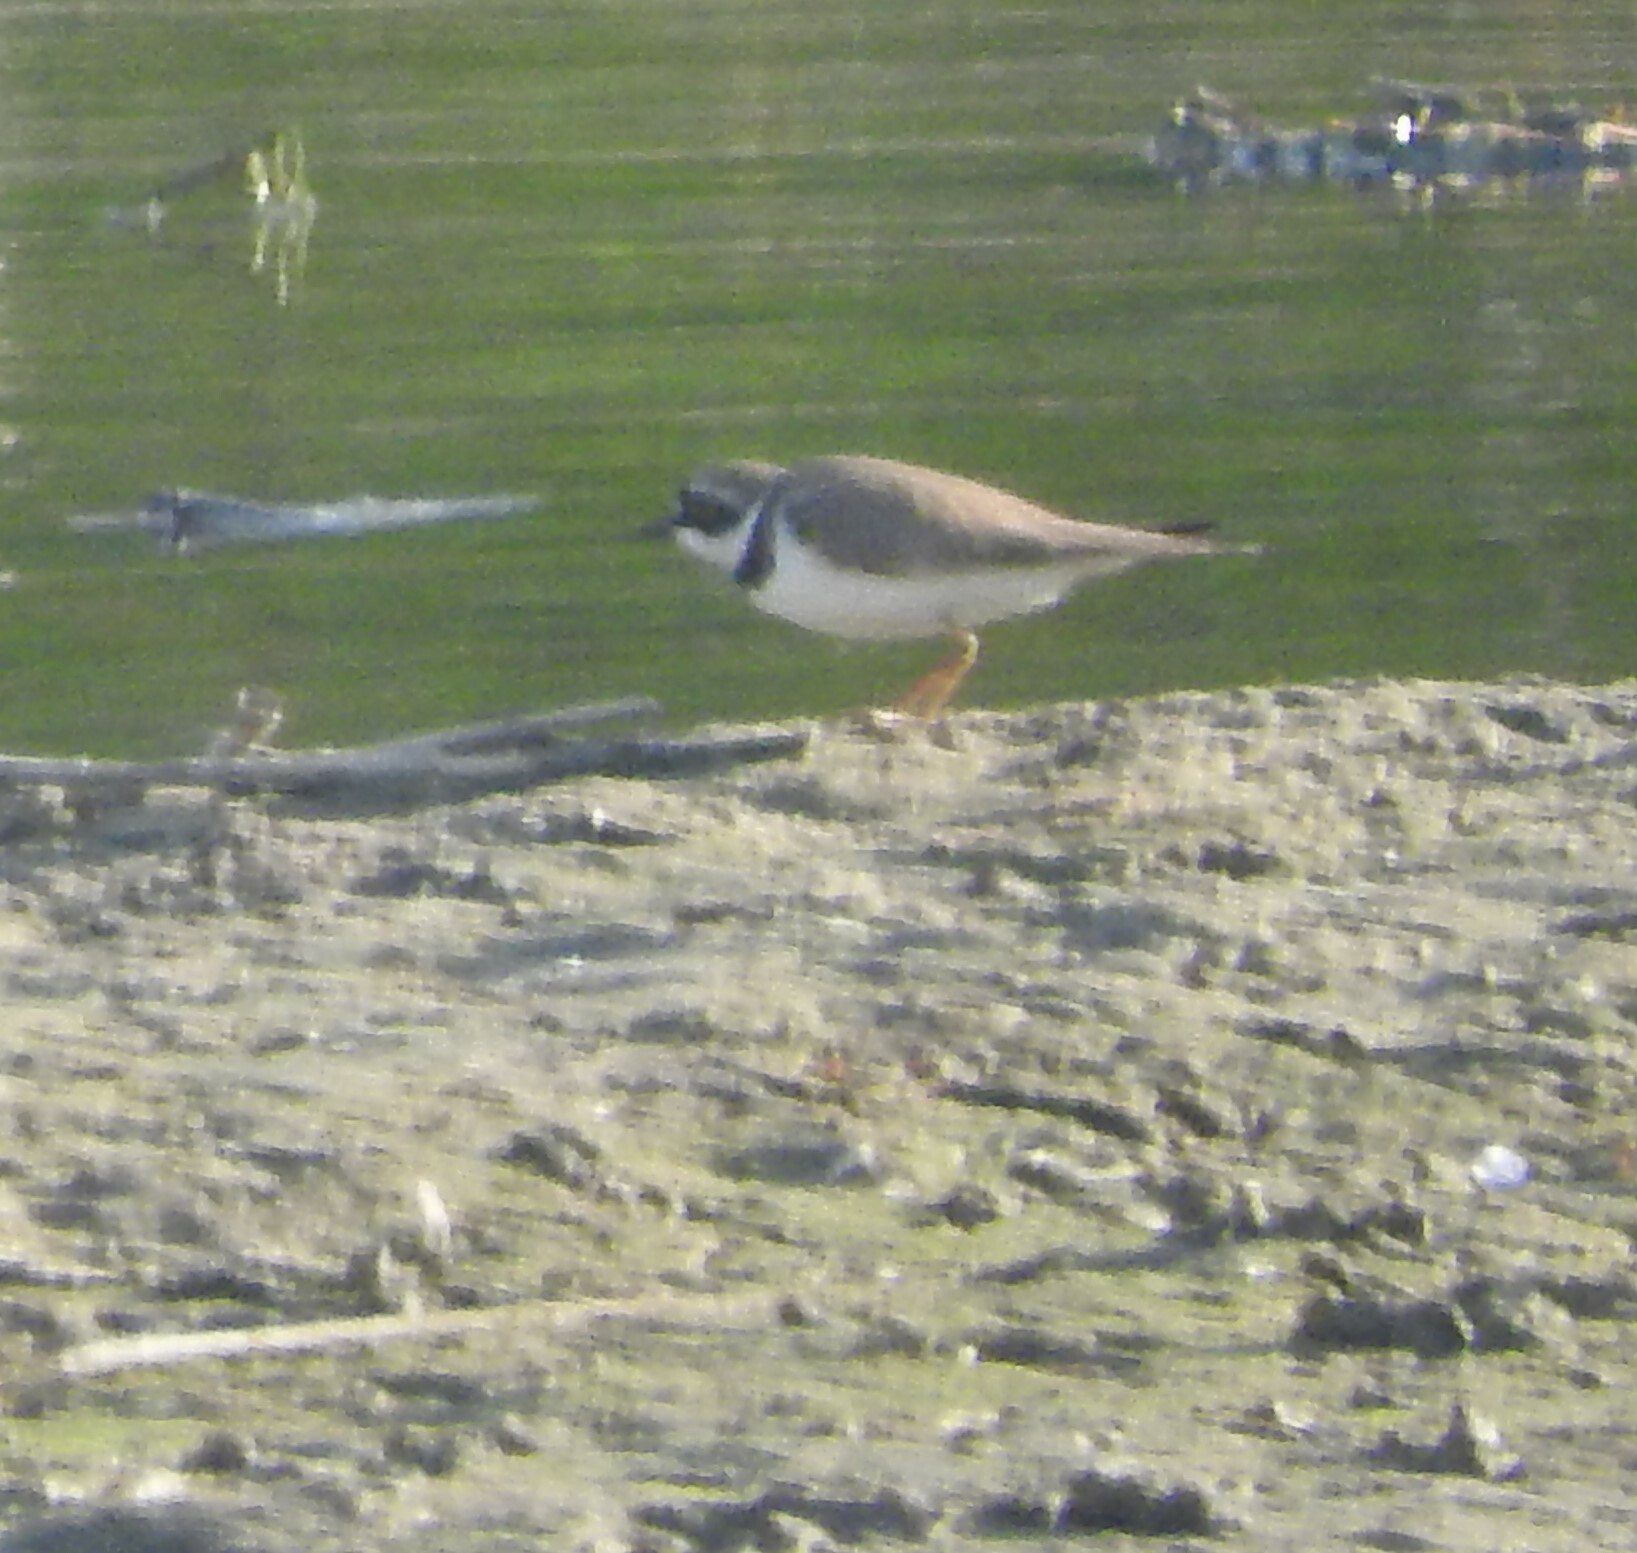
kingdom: Animalia
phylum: Chordata
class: Aves
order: Charadriiformes
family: Charadriidae
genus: Charadrius
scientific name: Charadrius dubius
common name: Little ringed plover
